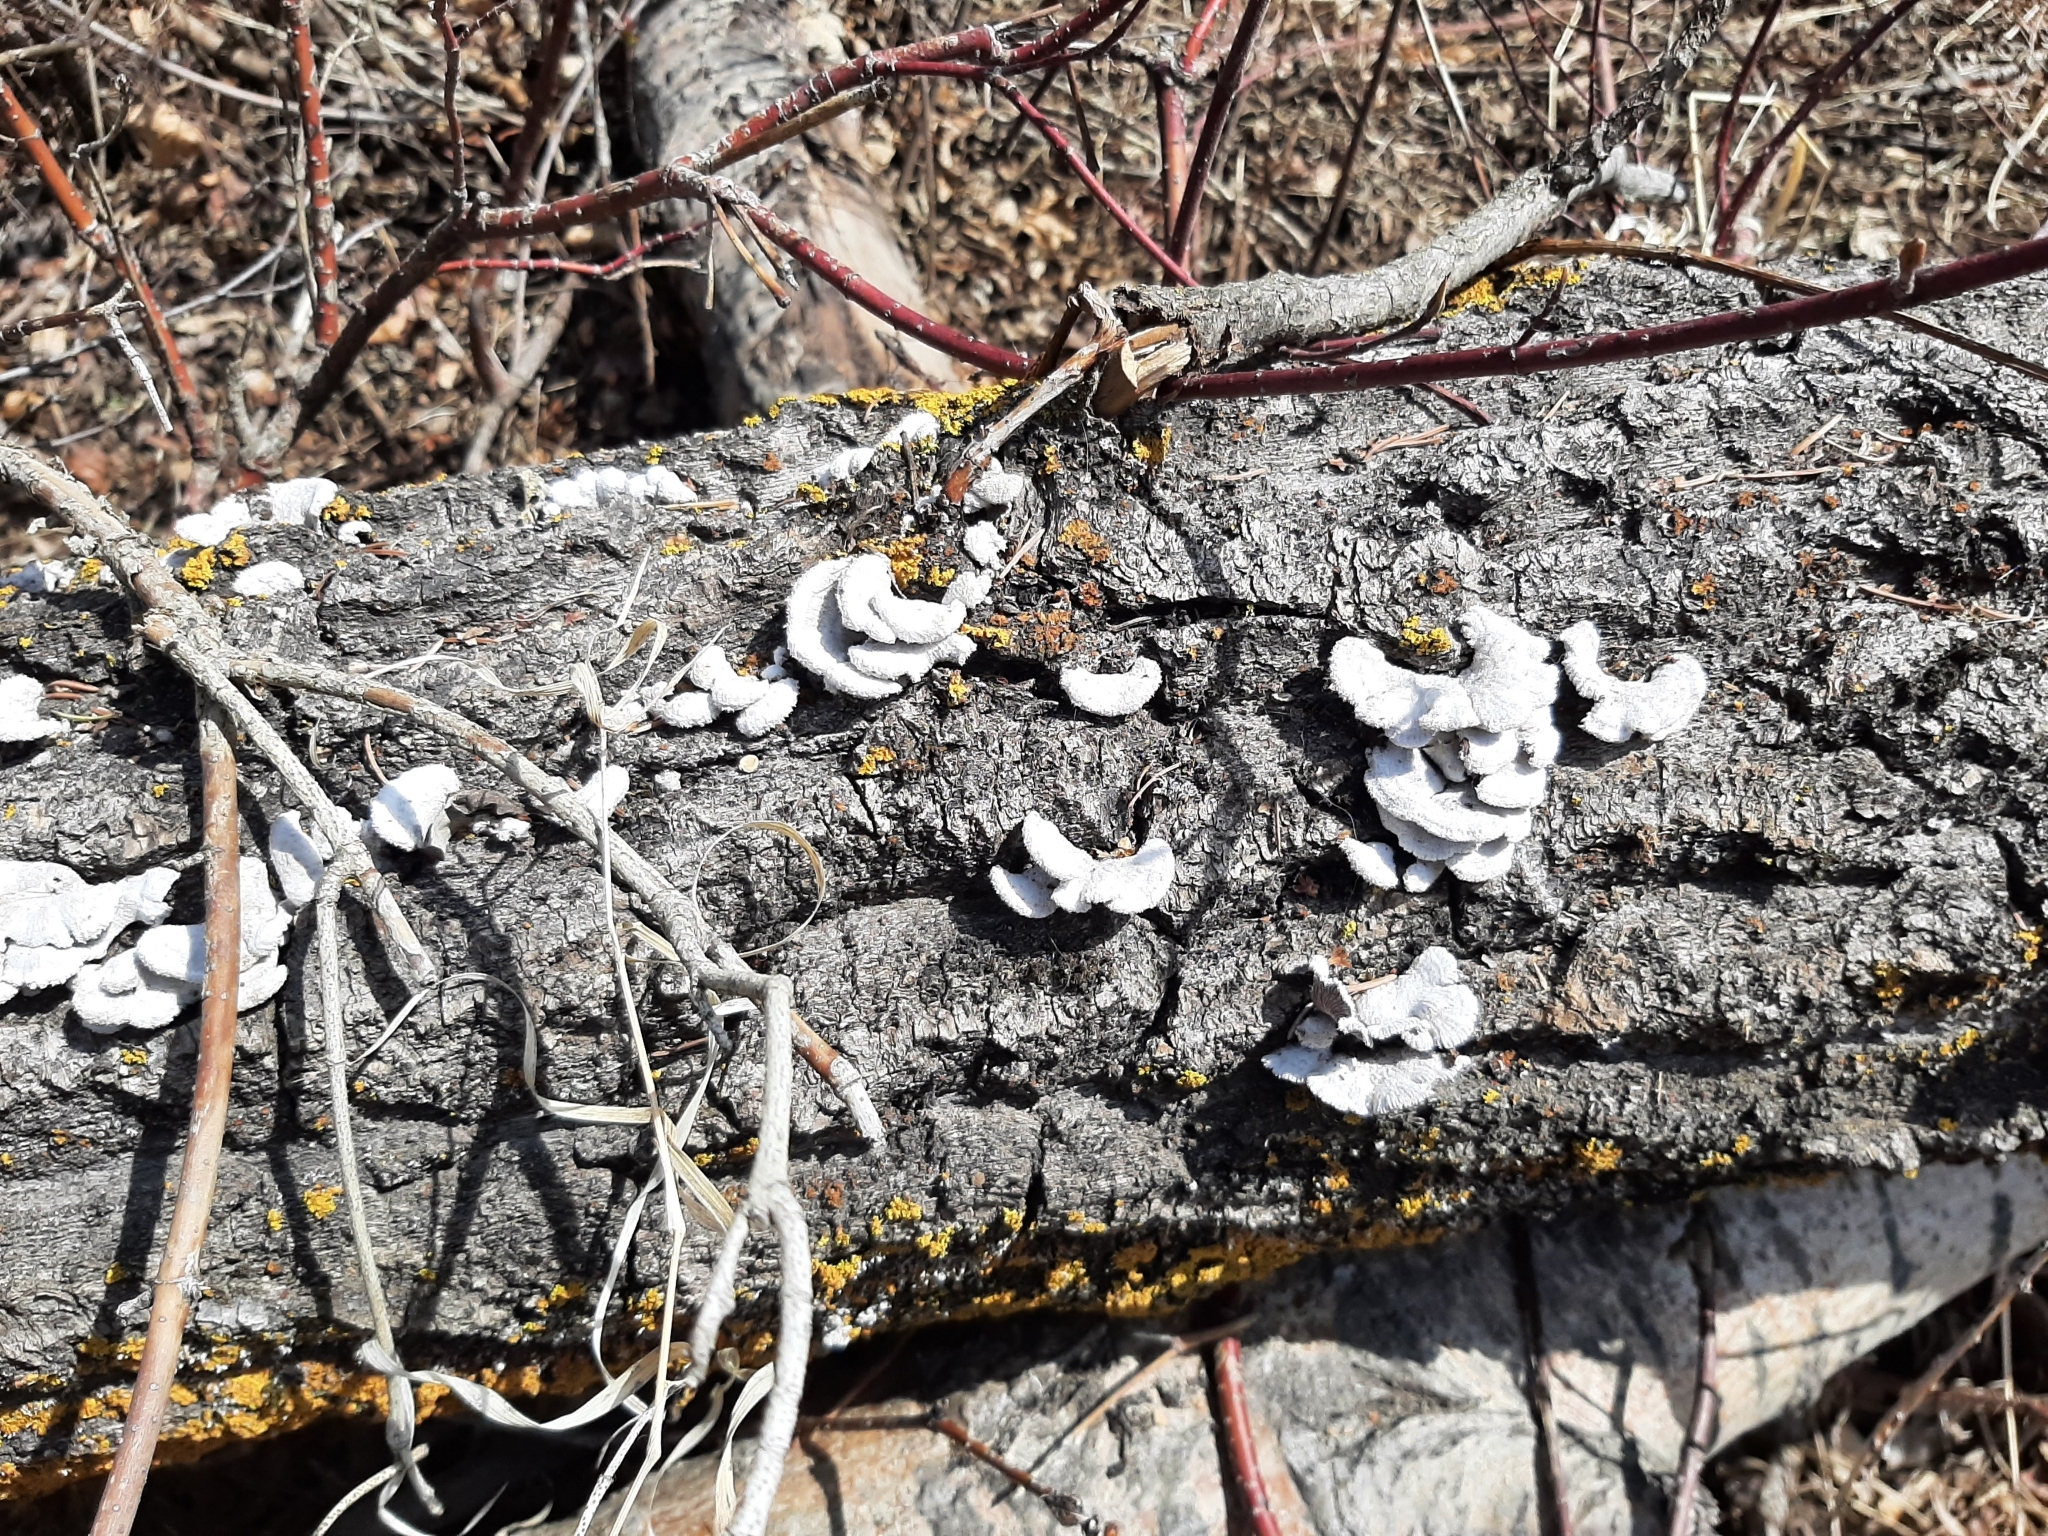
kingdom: Fungi
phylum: Basidiomycota
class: Agaricomycetes
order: Agaricales
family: Schizophyllaceae
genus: Schizophyllum
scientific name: Schizophyllum commune
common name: Common porecrust
